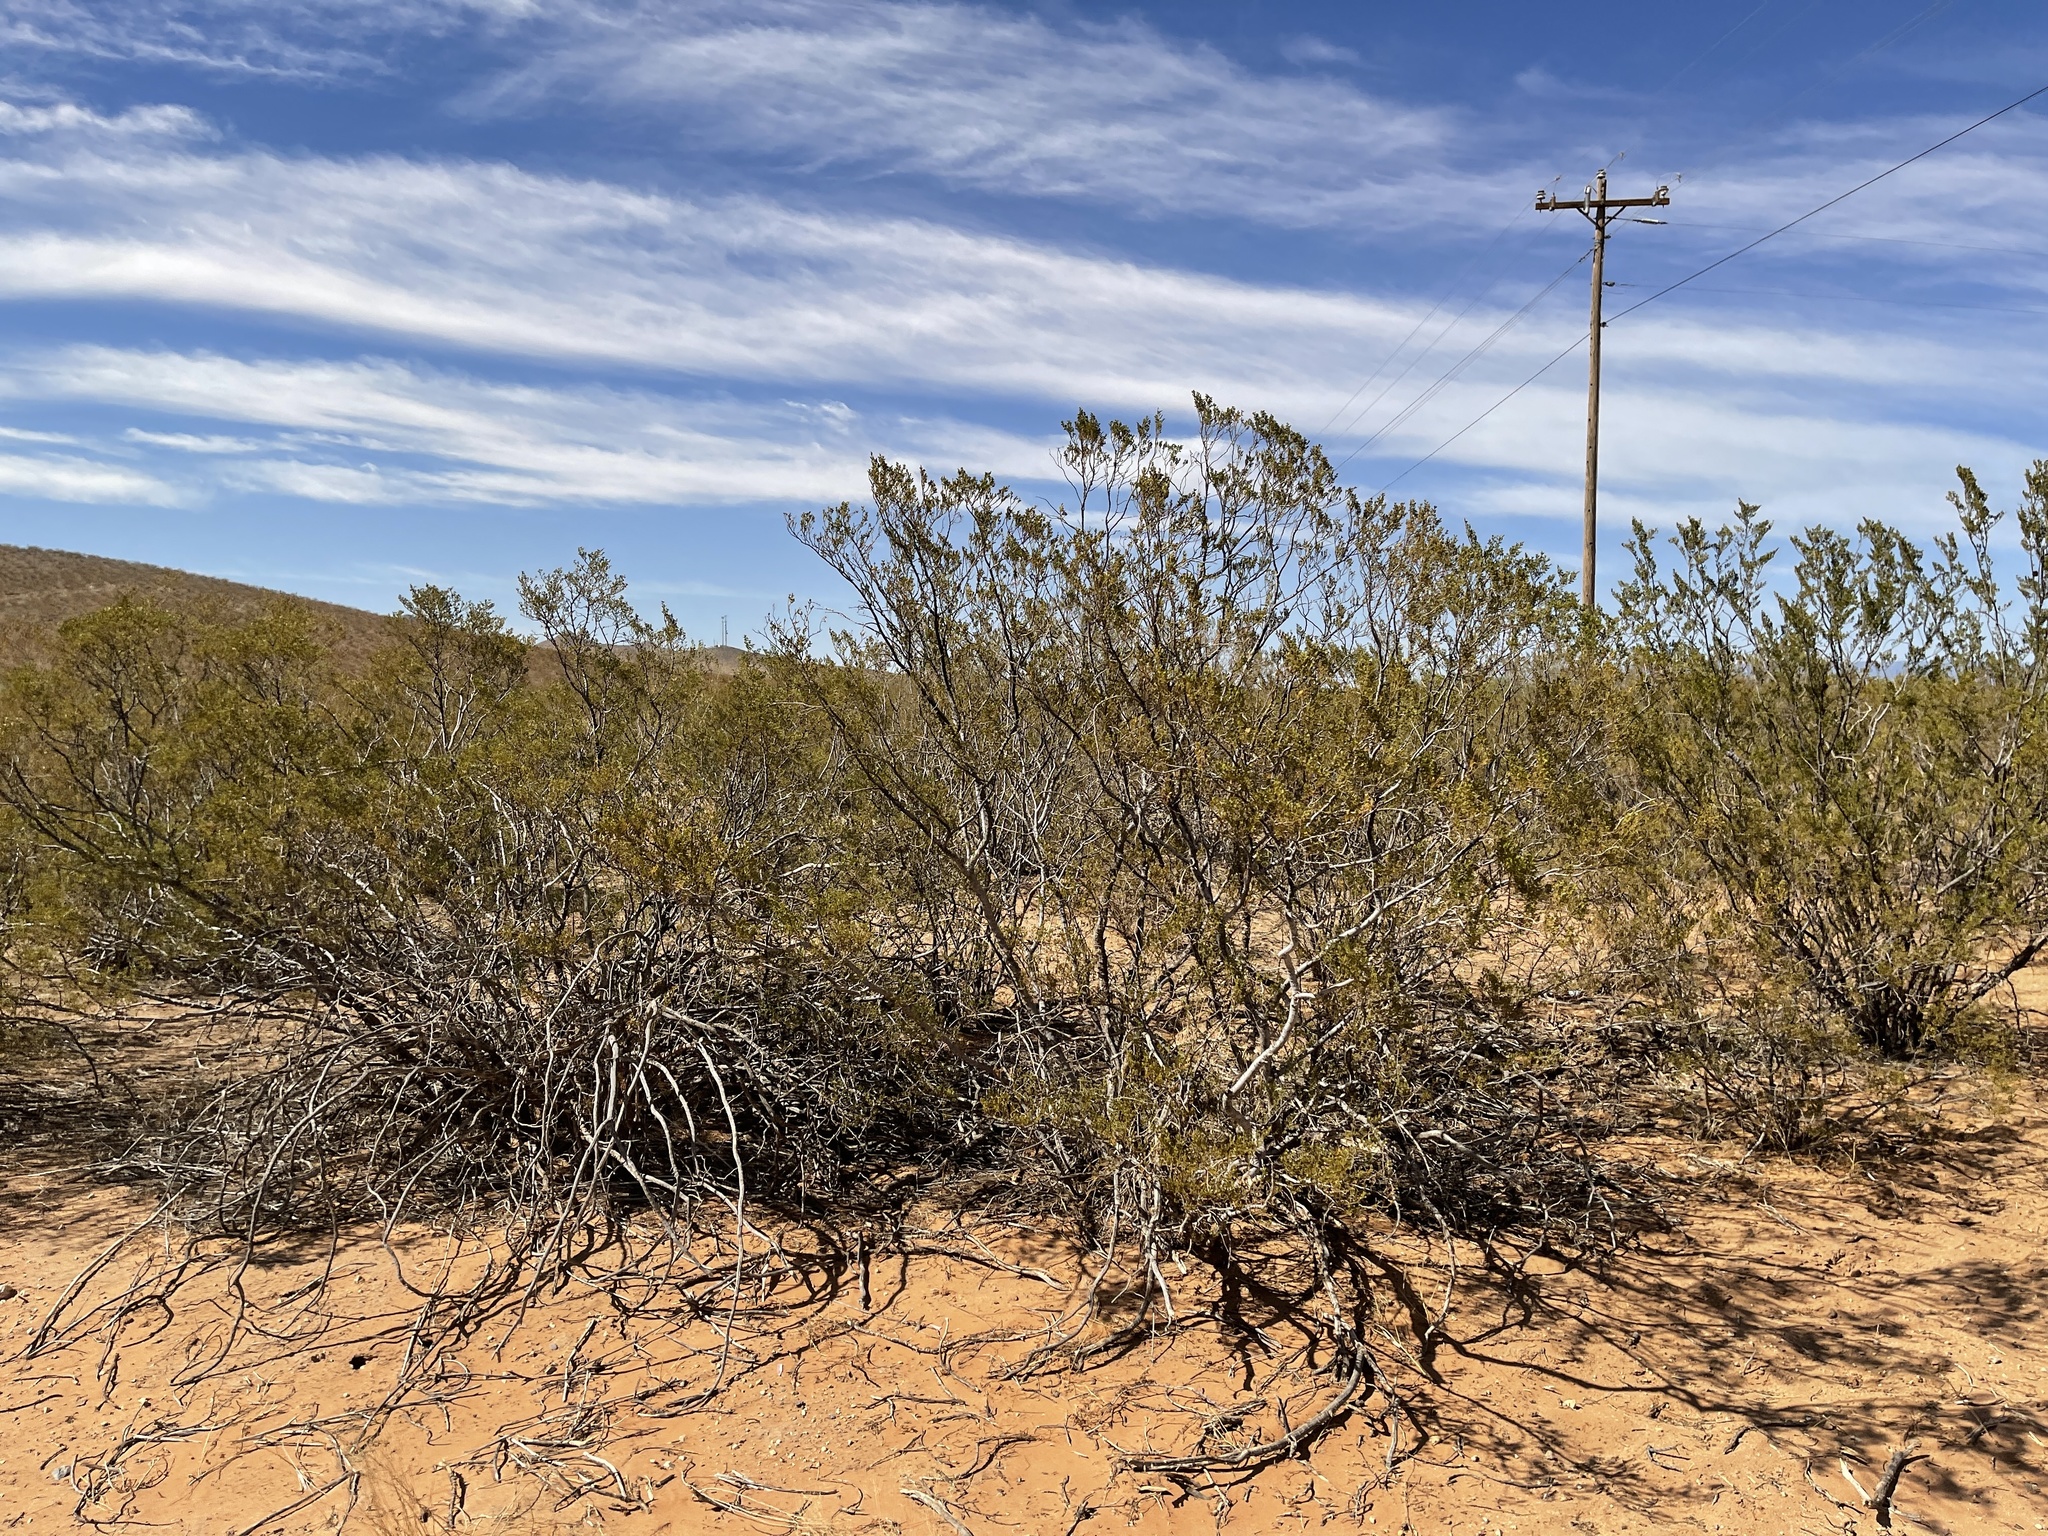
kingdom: Plantae
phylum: Tracheophyta
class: Magnoliopsida
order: Zygophyllales
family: Zygophyllaceae
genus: Larrea
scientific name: Larrea tridentata
